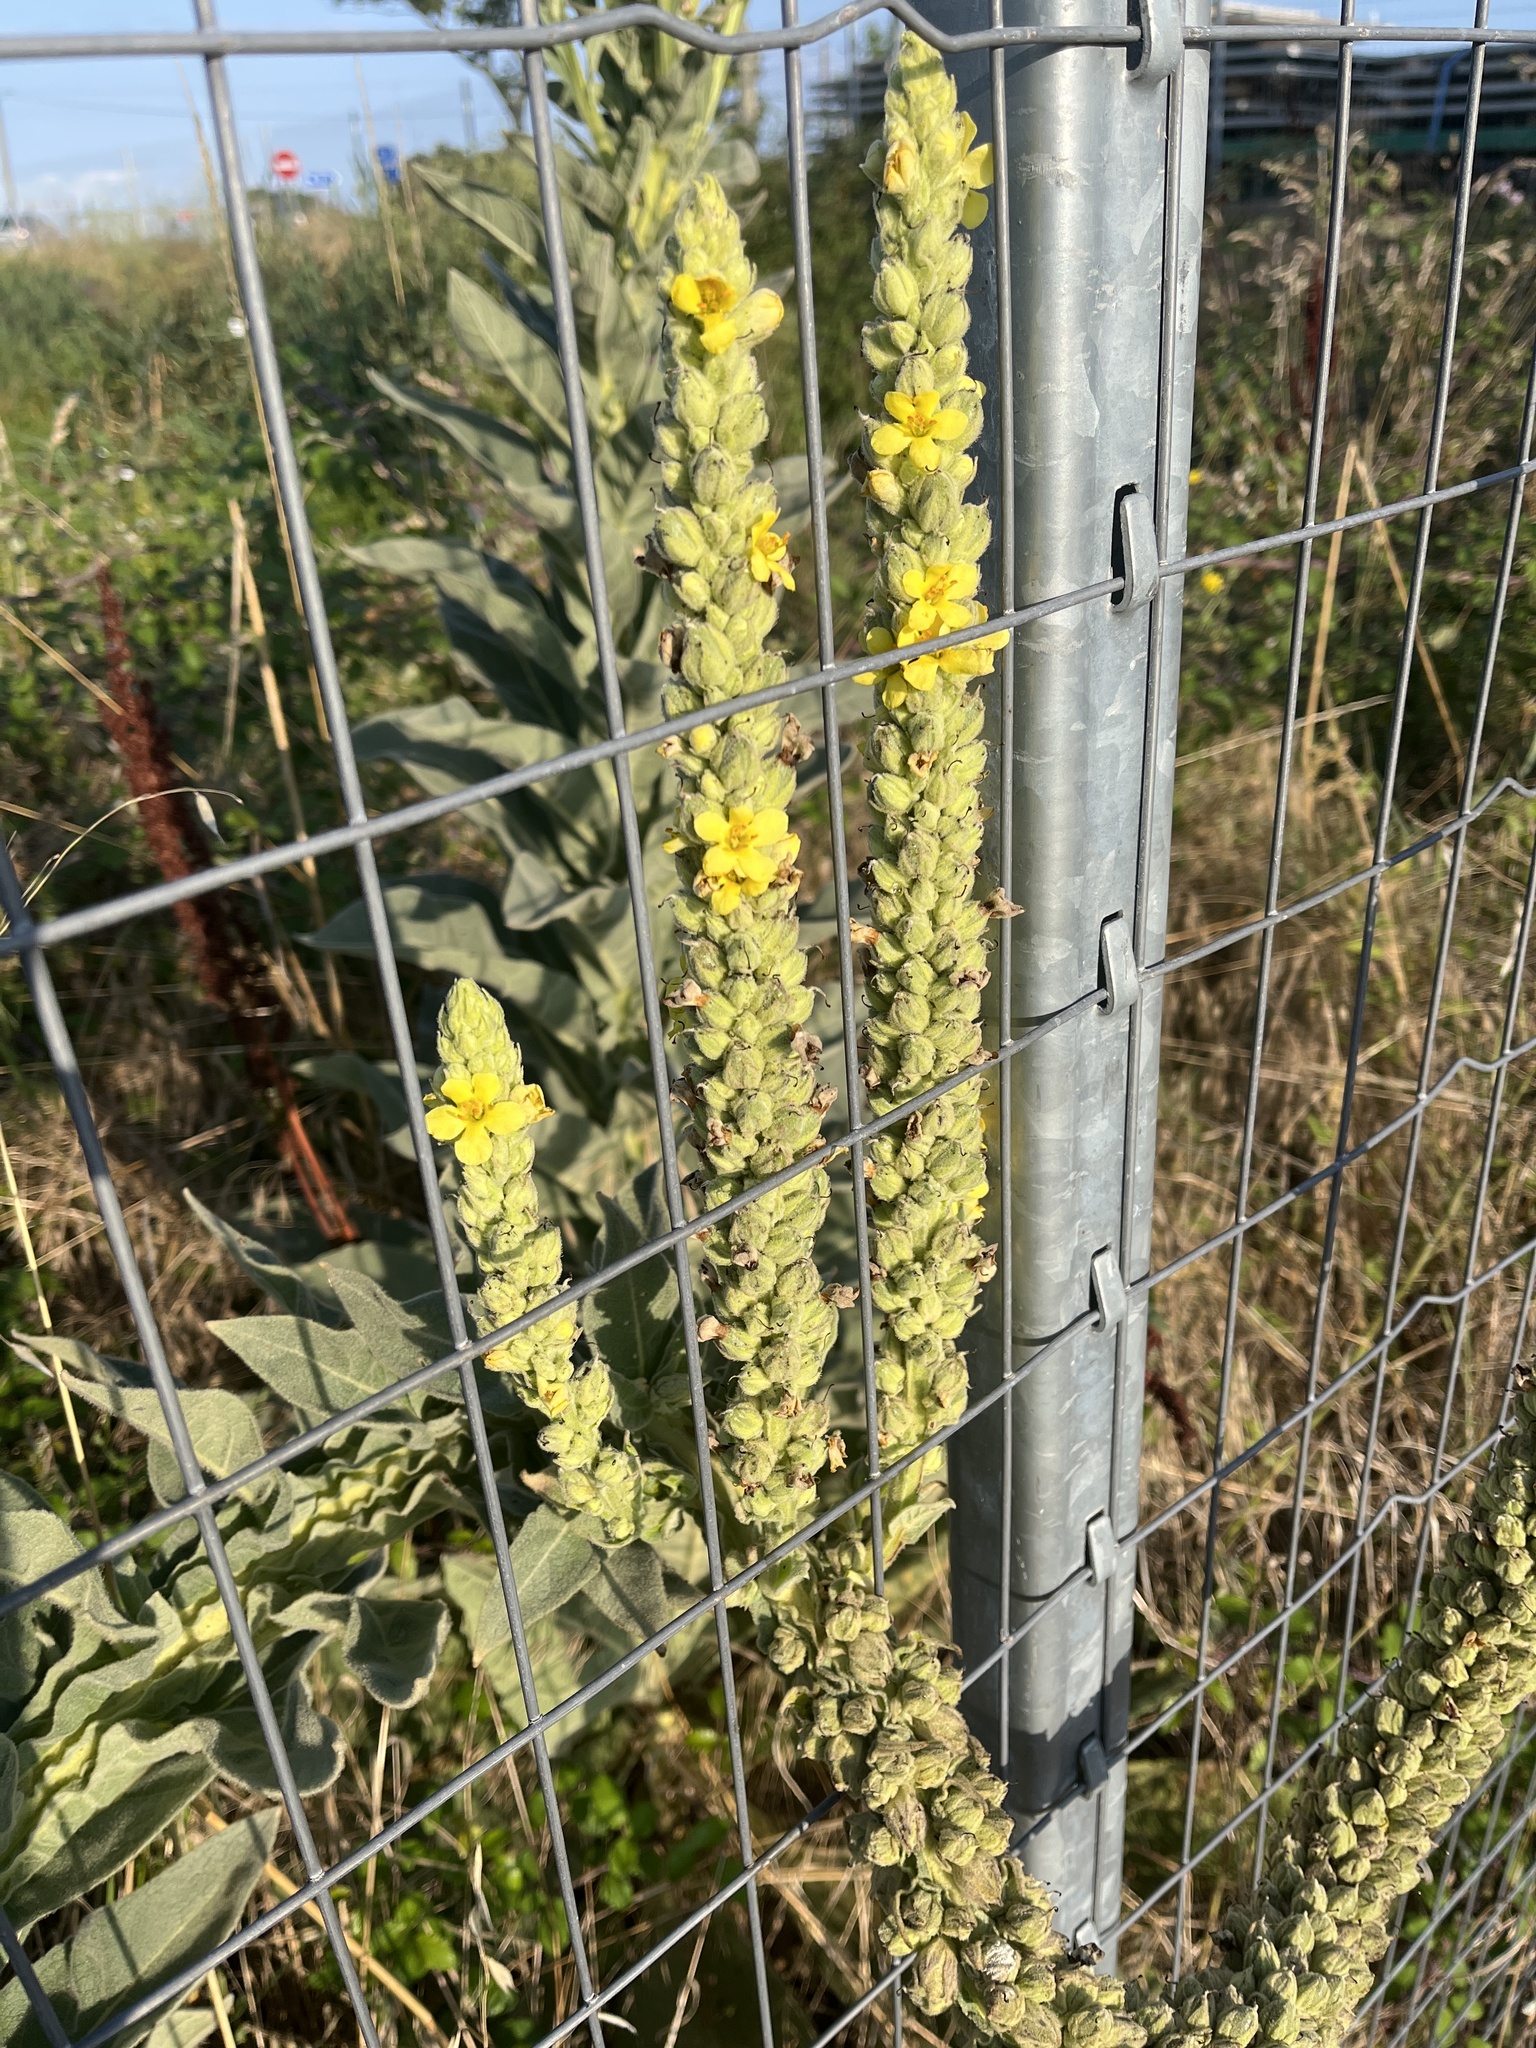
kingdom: Plantae
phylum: Tracheophyta
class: Magnoliopsida
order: Lamiales
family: Scrophulariaceae
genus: Verbascum
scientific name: Verbascum thapsus
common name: Common mullein
